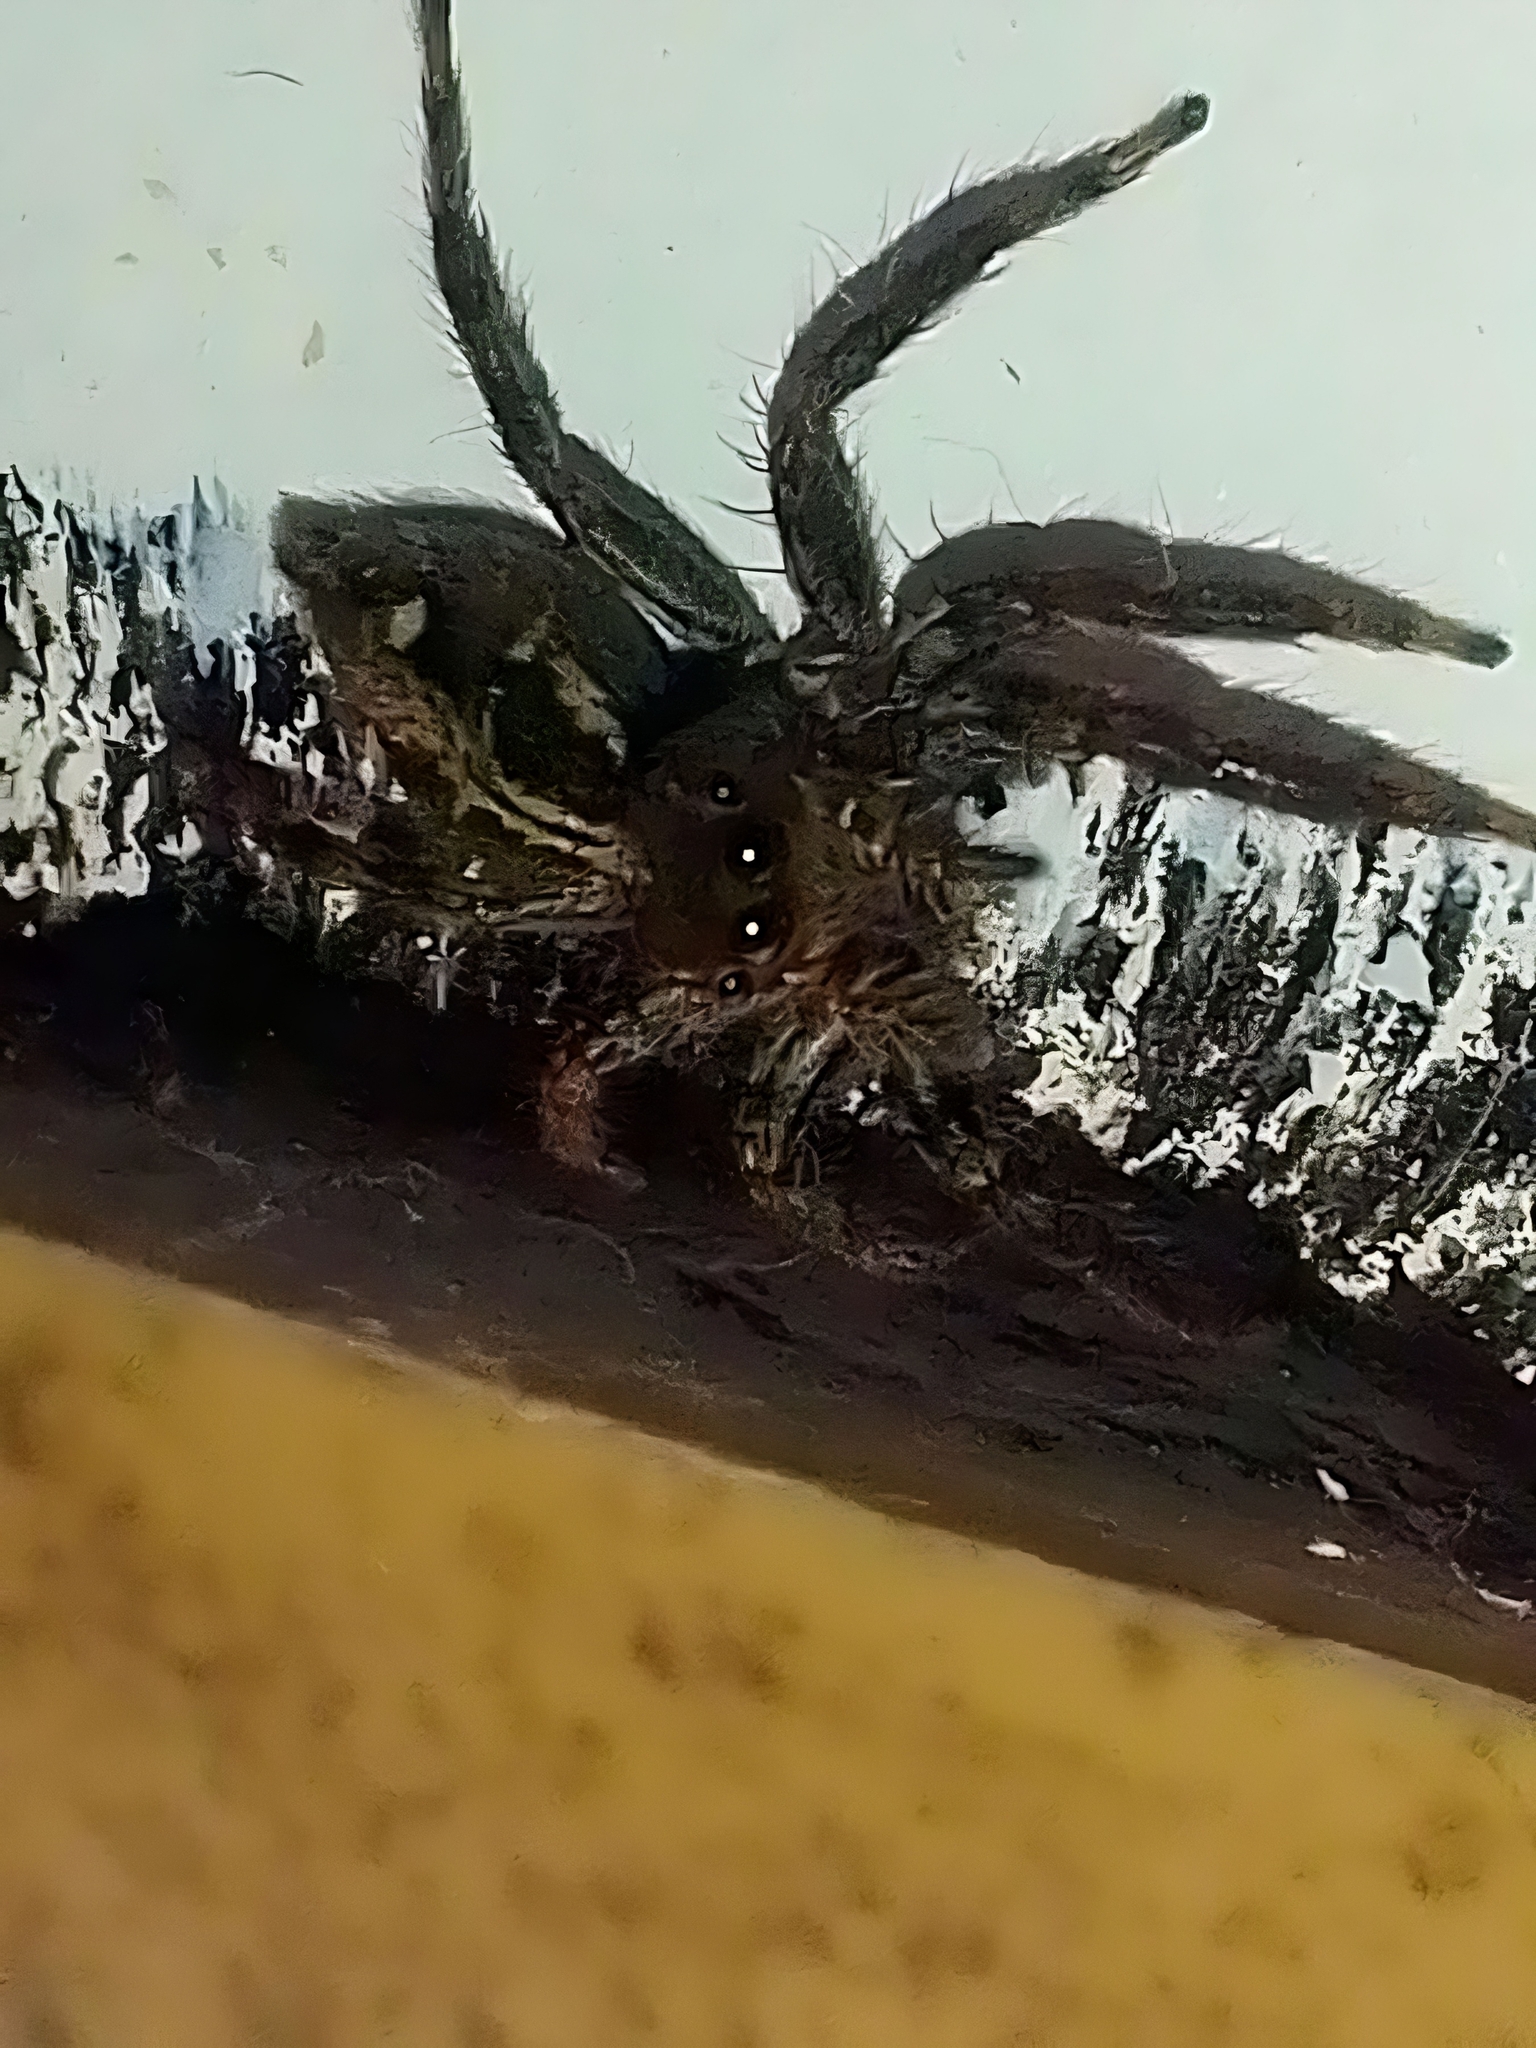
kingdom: Animalia
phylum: Arthropoda
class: Arachnida
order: Araneae
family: Salticidae
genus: Plexippus
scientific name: Plexippus paykulli
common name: Pantropical jumper
